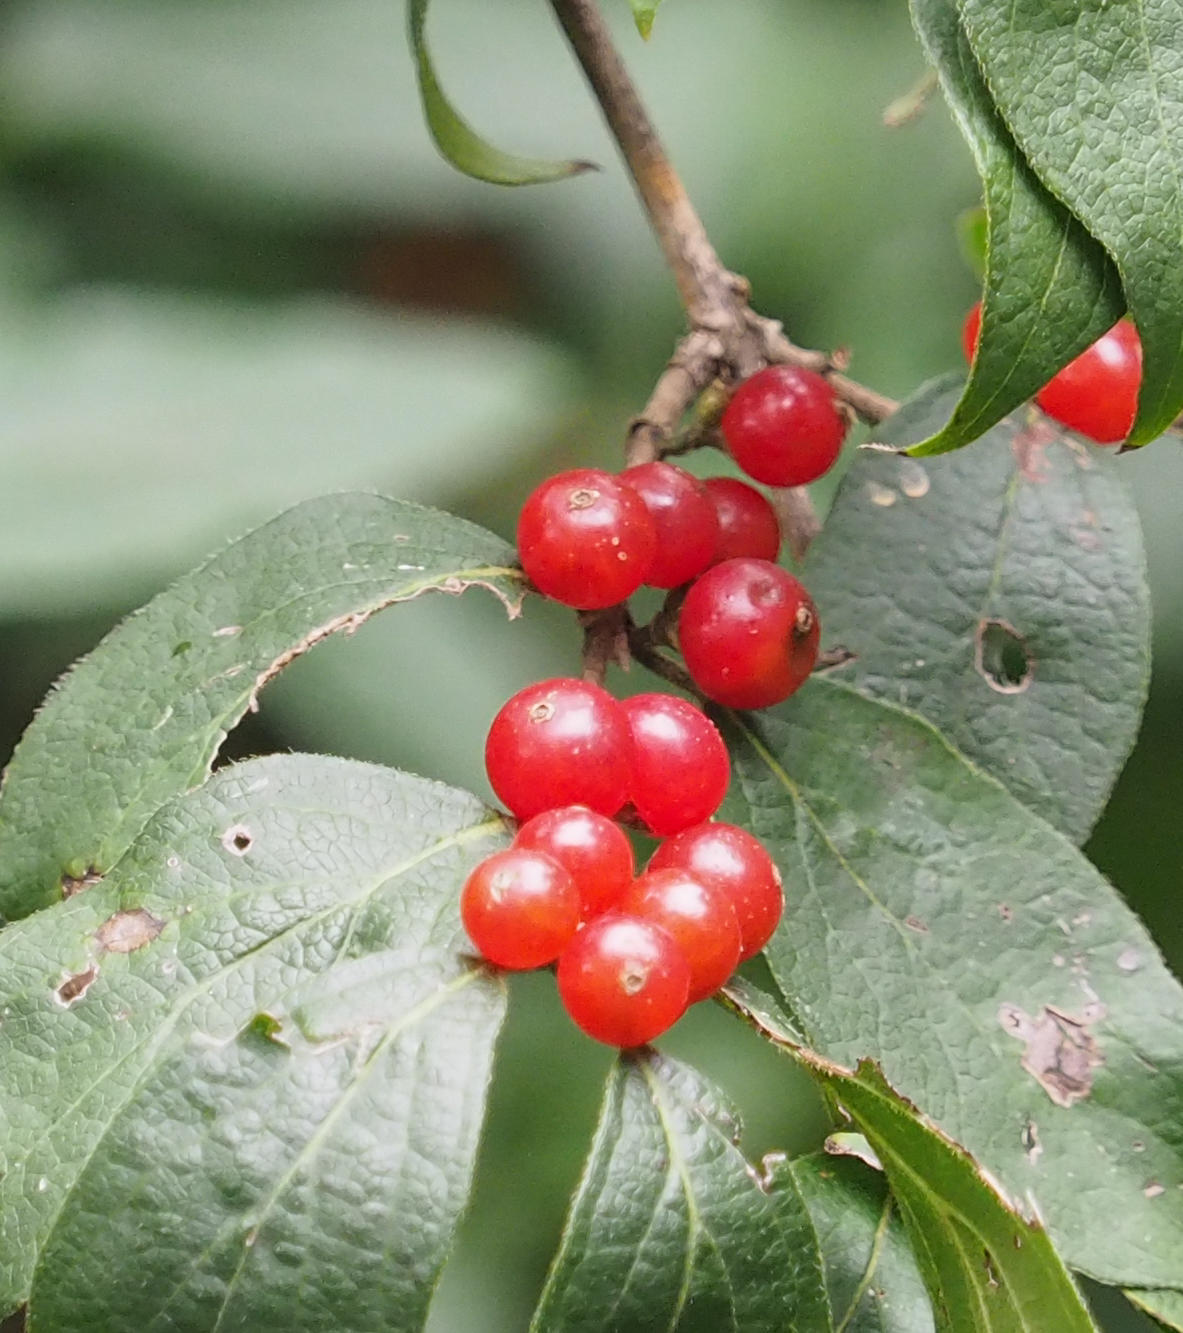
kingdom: Plantae
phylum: Tracheophyta
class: Magnoliopsida
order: Dipsacales
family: Caprifoliaceae
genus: Lonicera
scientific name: Lonicera maackii
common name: Amur honeysuckle
